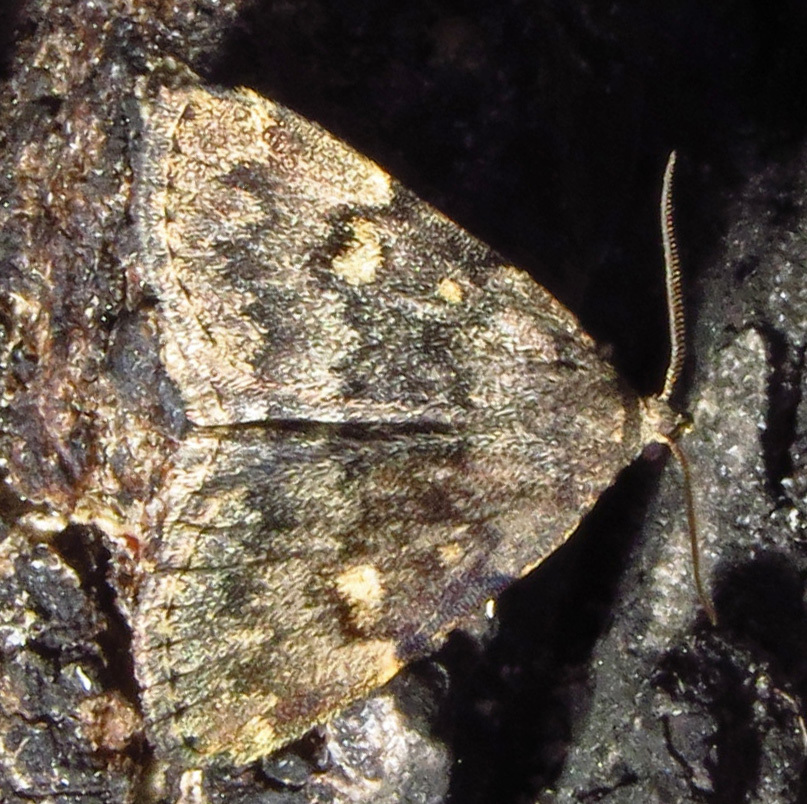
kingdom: Animalia
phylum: Arthropoda
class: Insecta
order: Lepidoptera
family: Erebidae
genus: Idia
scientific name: Idia aemula
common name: Common idia moth
